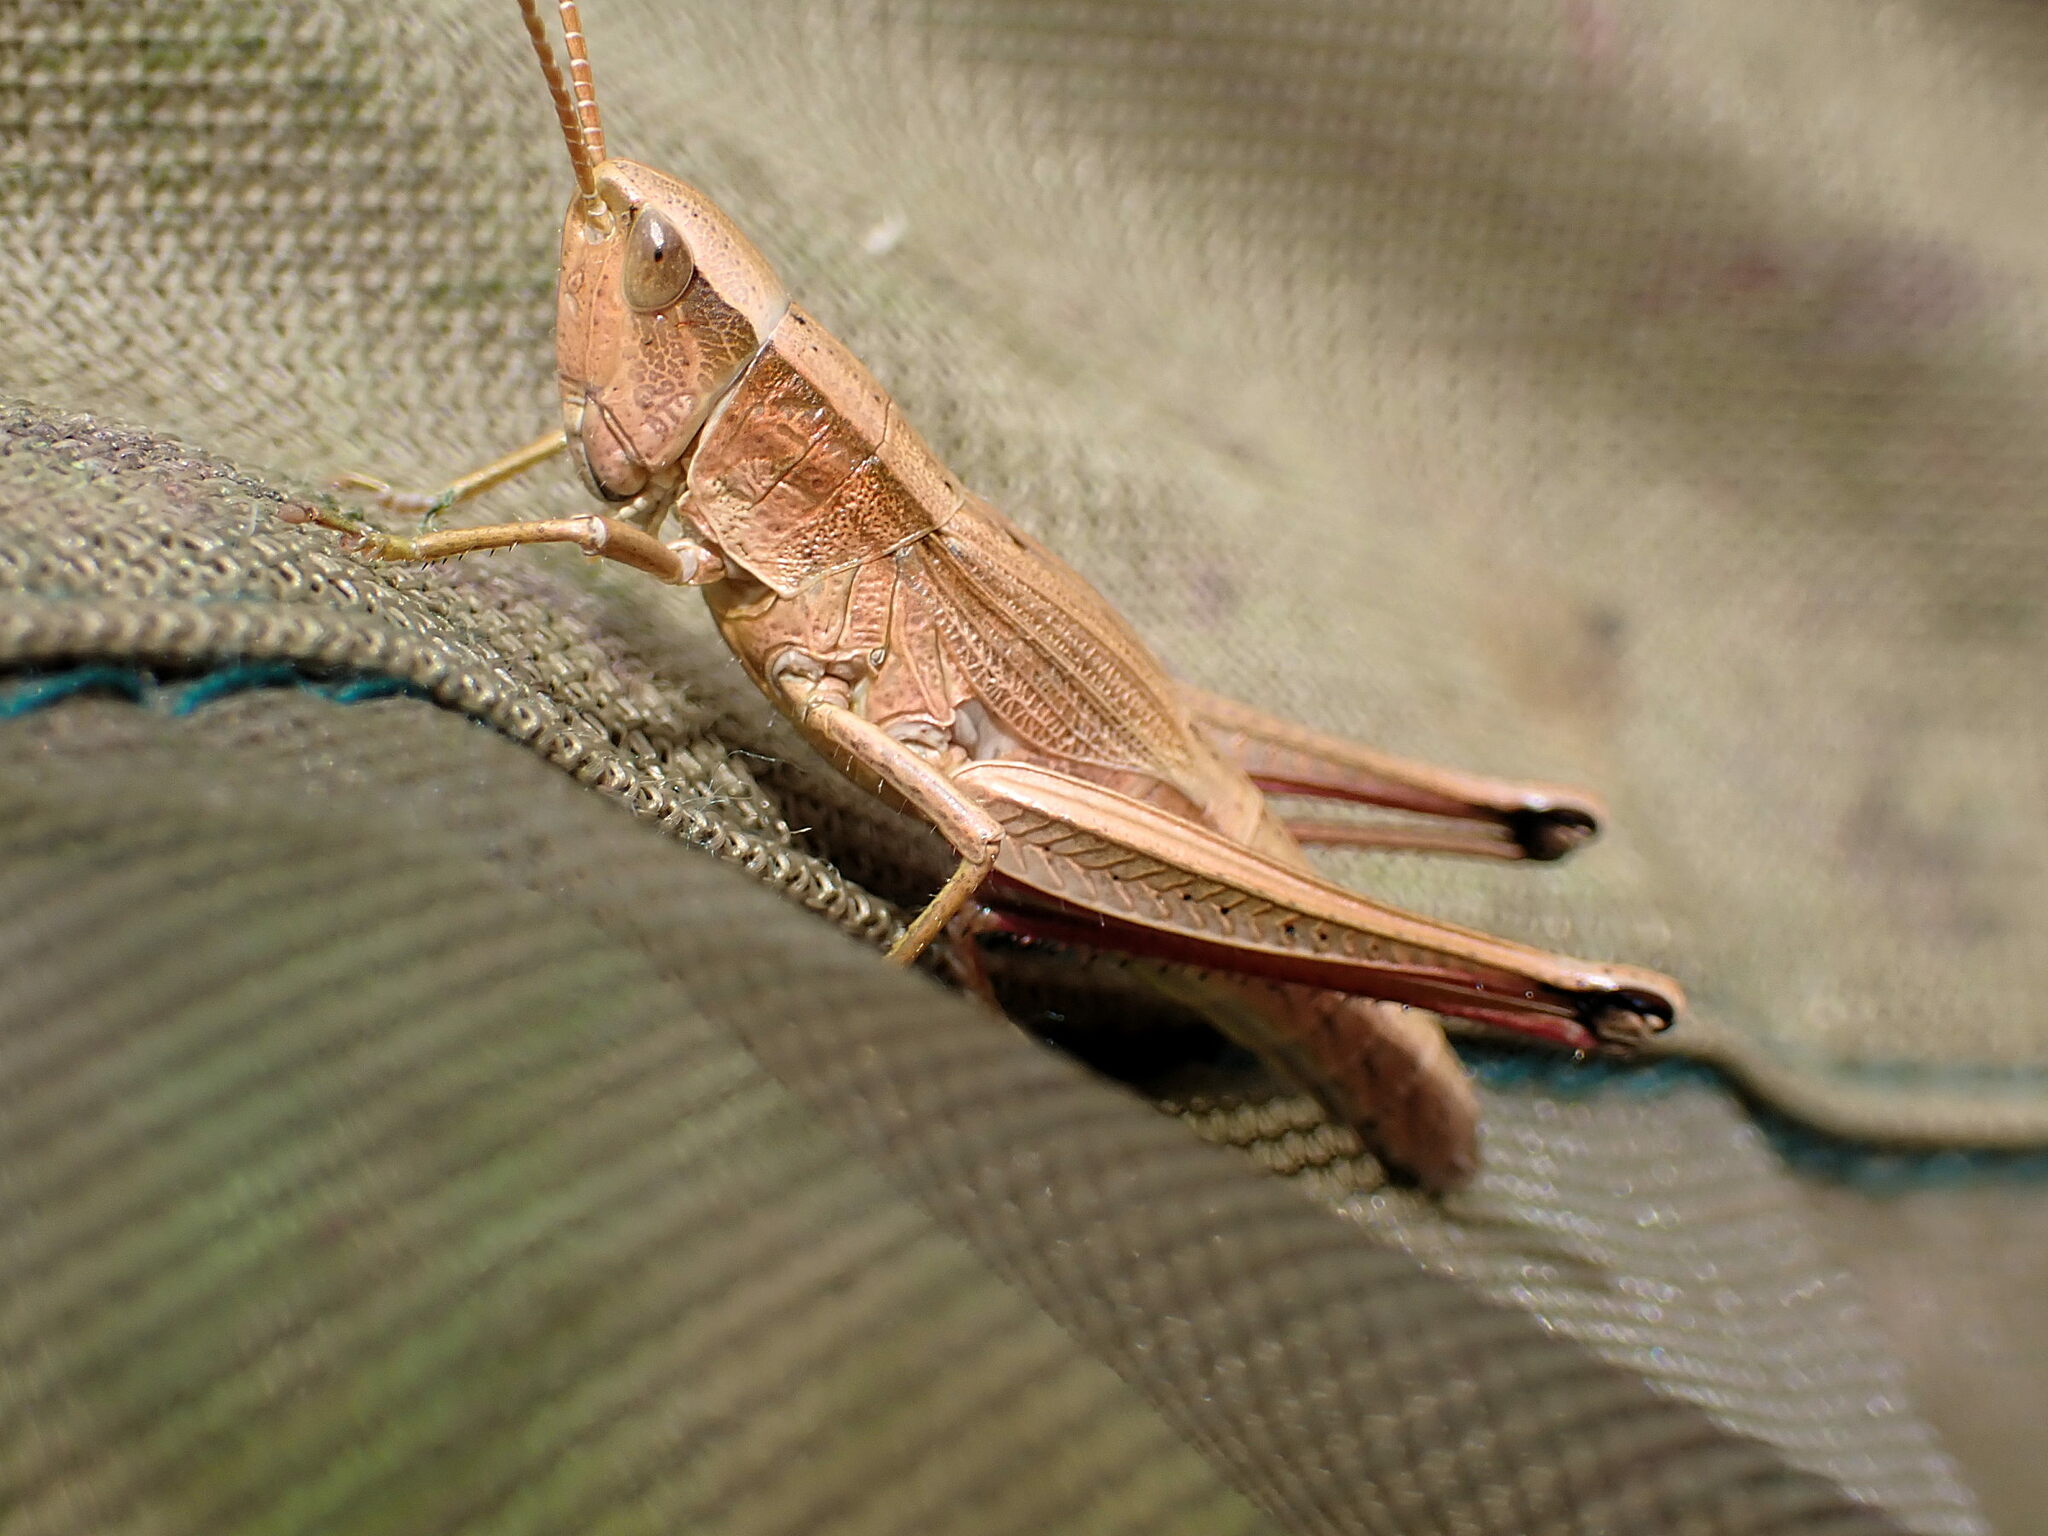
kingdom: Animalia
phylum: Arthropoda
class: Insecta
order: Orthoptera
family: Acrididae
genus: Chrysochraon
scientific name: Chrysochraon dispar
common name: Large gold grasshopper
